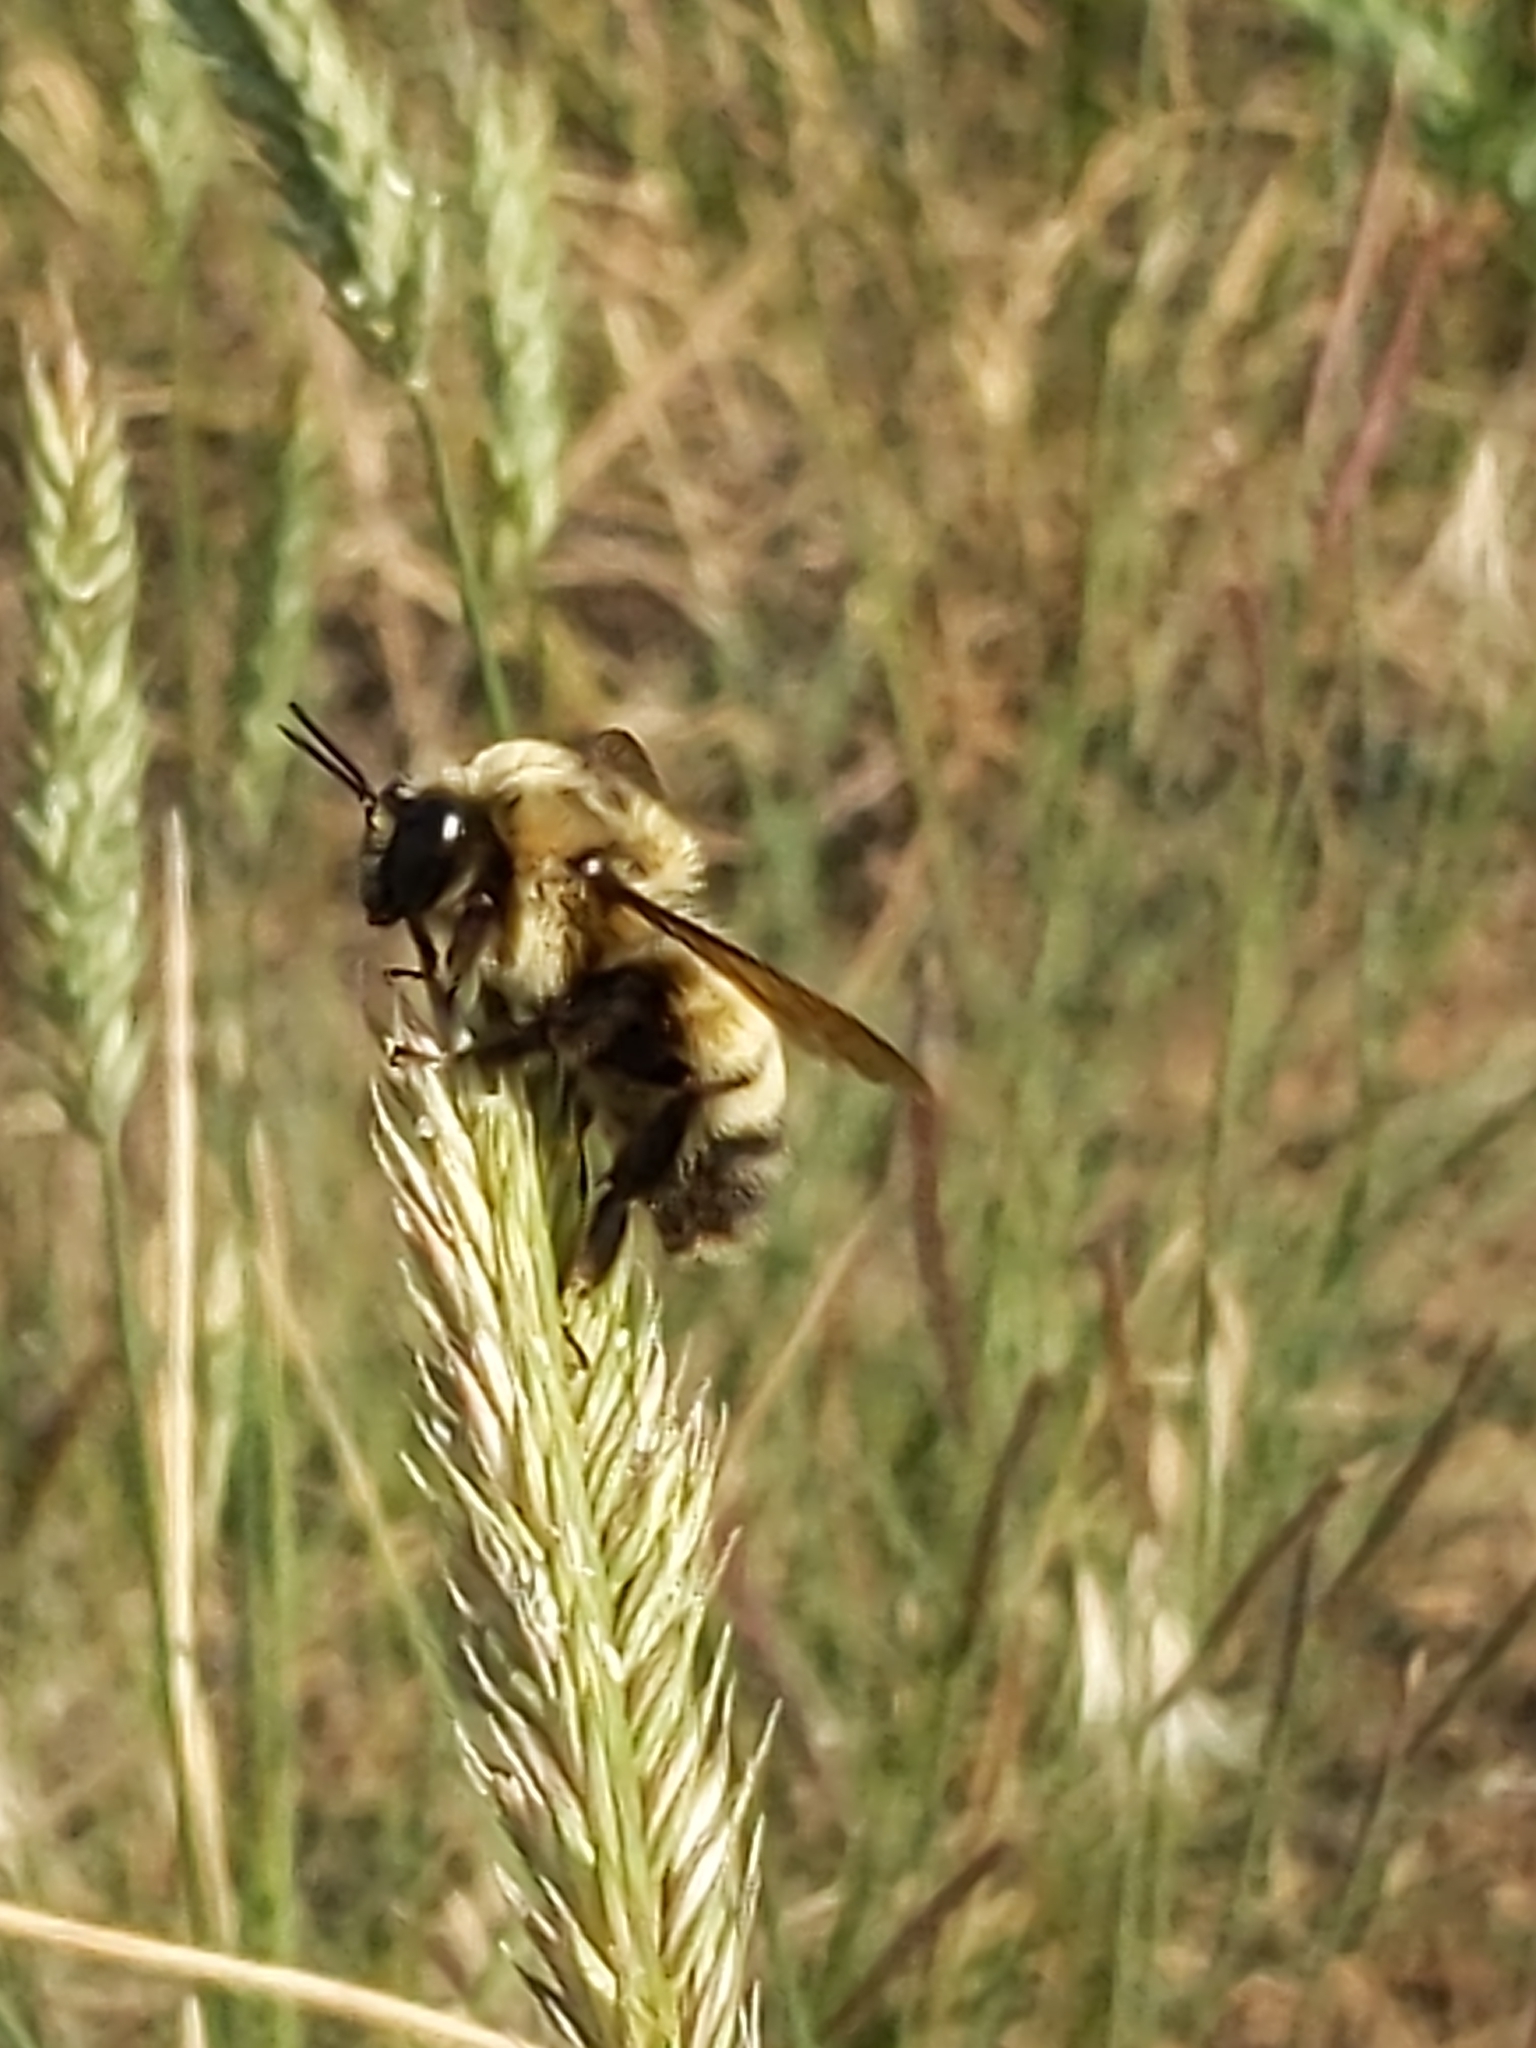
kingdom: Animalia
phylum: Arthropoda
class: Insecta
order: Hymenoptera
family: Apidae
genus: Bombus
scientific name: Bombus nevadensis
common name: Nevada bumble bee
